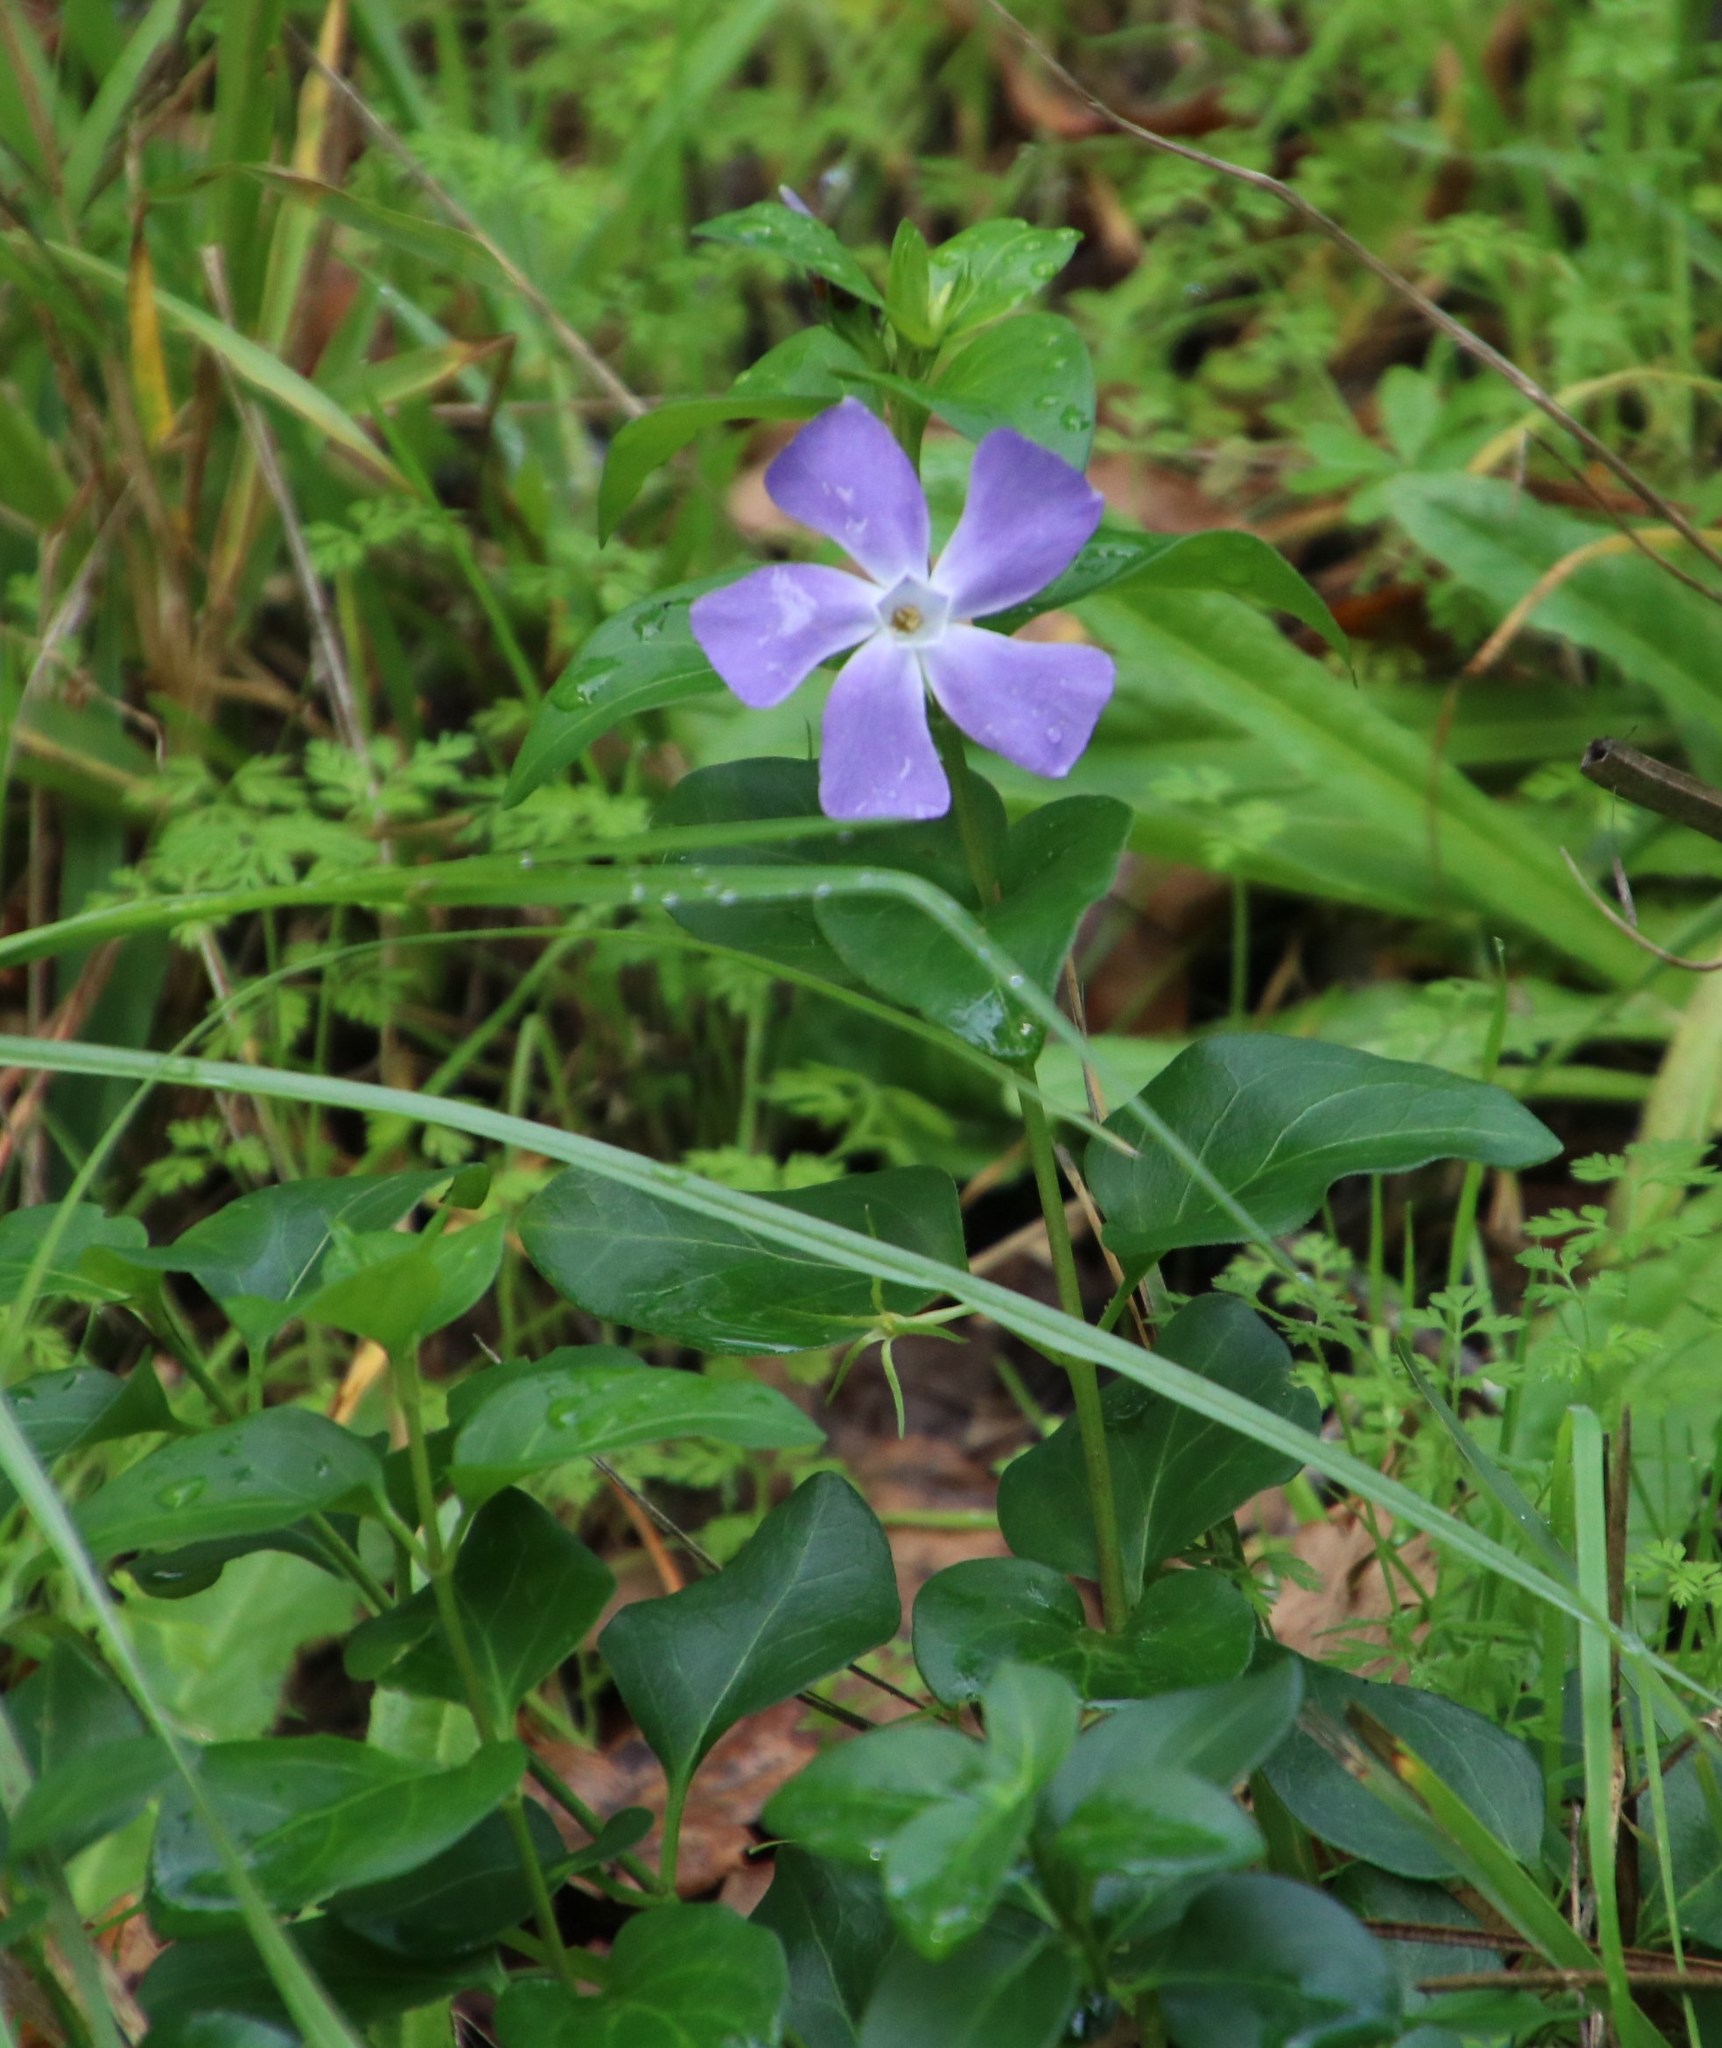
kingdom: Plantae
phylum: Tracheophyta
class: Magnoliopsida
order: Gentianales
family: Apocynaceae
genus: Vinca
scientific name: Vinca major
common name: Greater periwinkle
